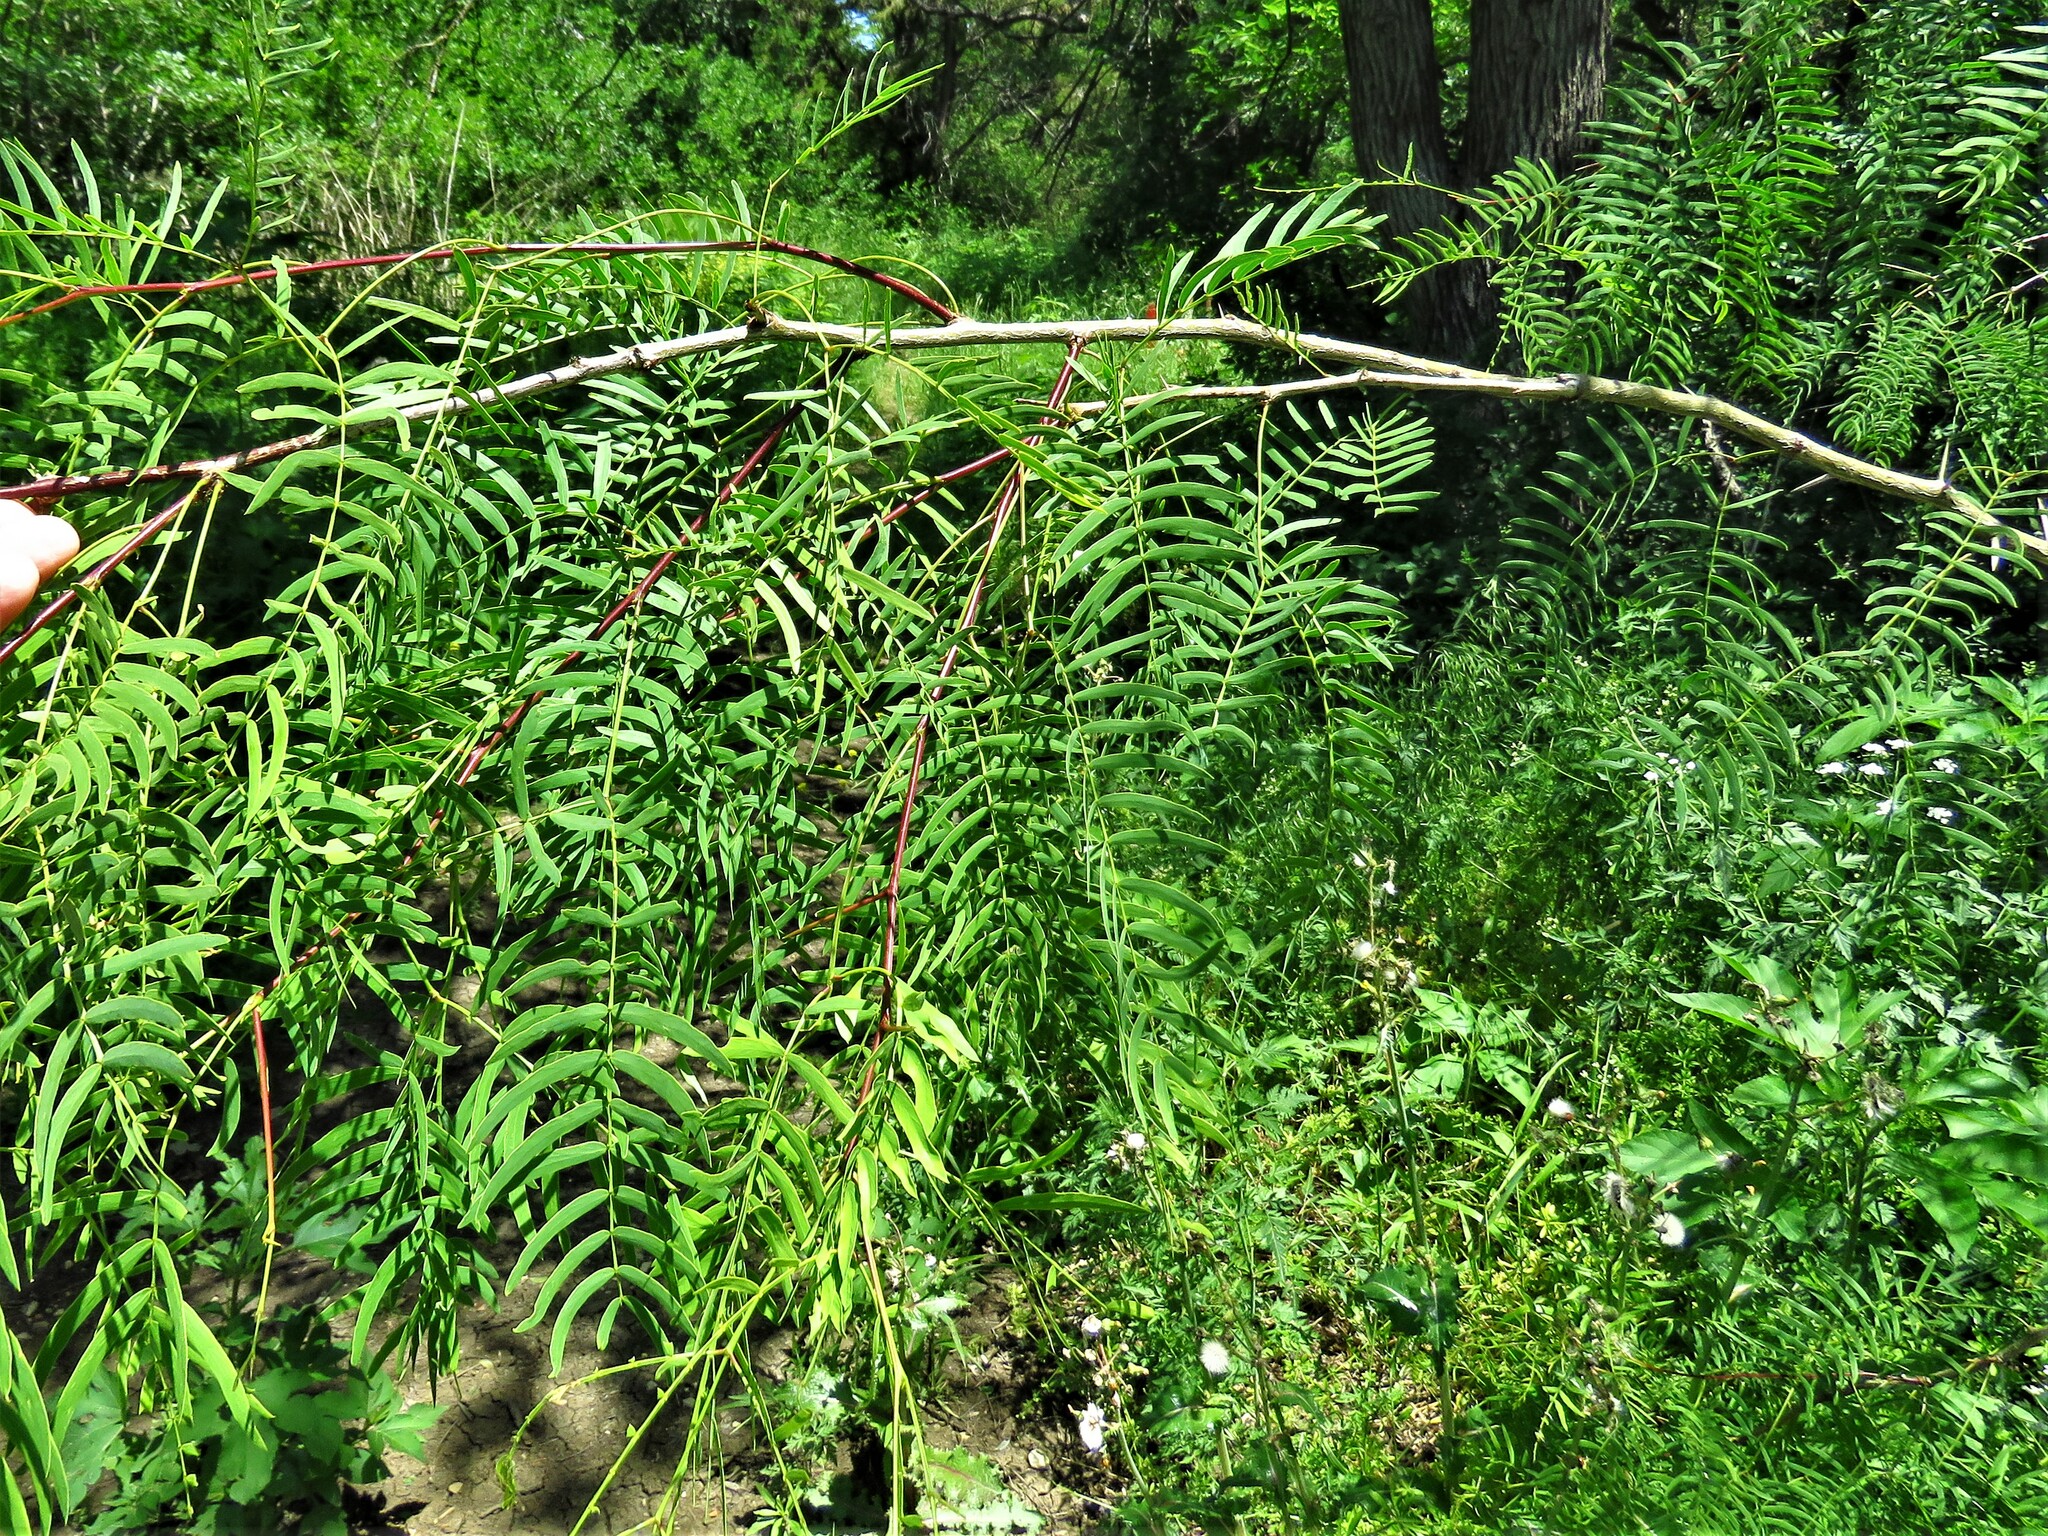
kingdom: Plantae
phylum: Tracheophyta
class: Magnoliopsida
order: Fabales
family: Fabaceae
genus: Prosopis
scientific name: Prosopis glandulosa
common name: Honey mesquite
